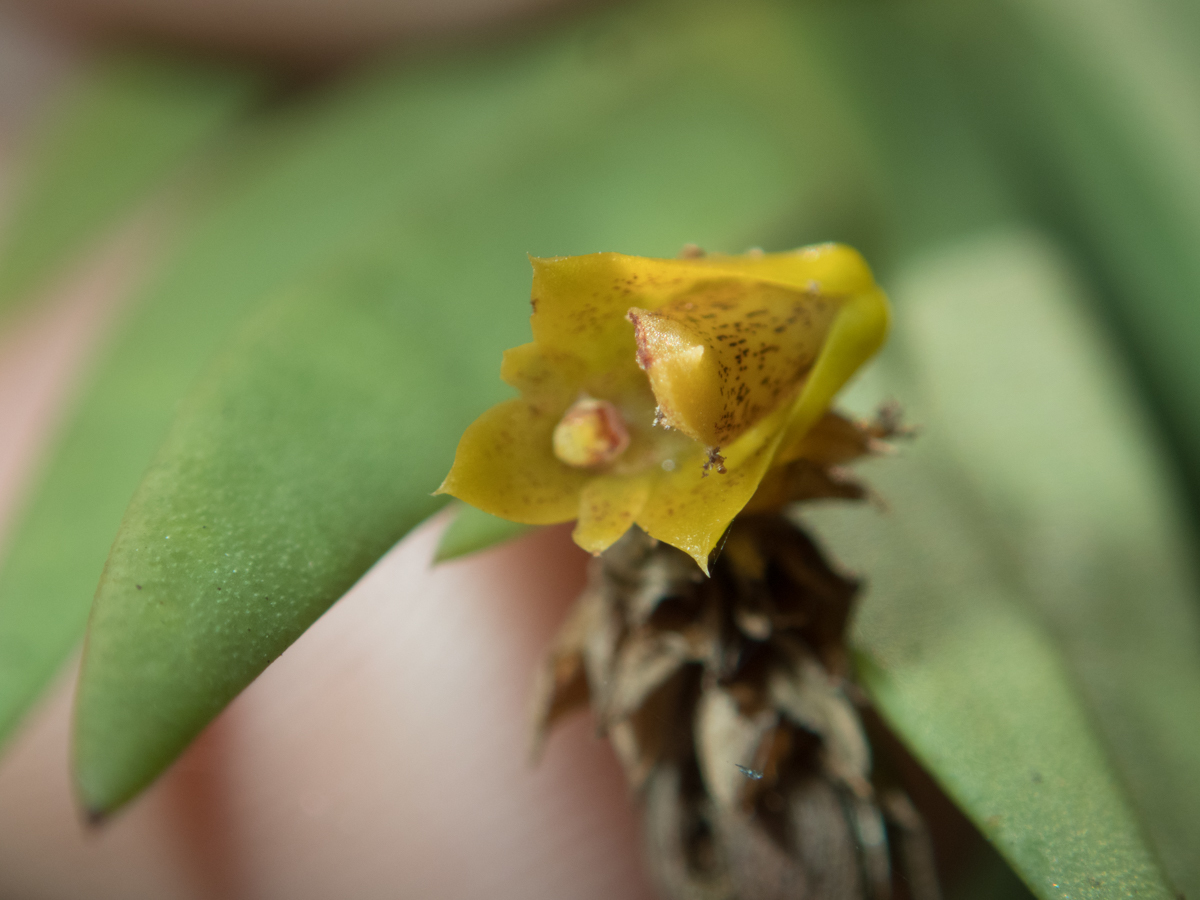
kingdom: Plantae
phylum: Tracheophyta
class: Liliopsida
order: Asparagales
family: Orchidaceae
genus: Oxystophyllum
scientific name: Oxystophyllum carnosum
